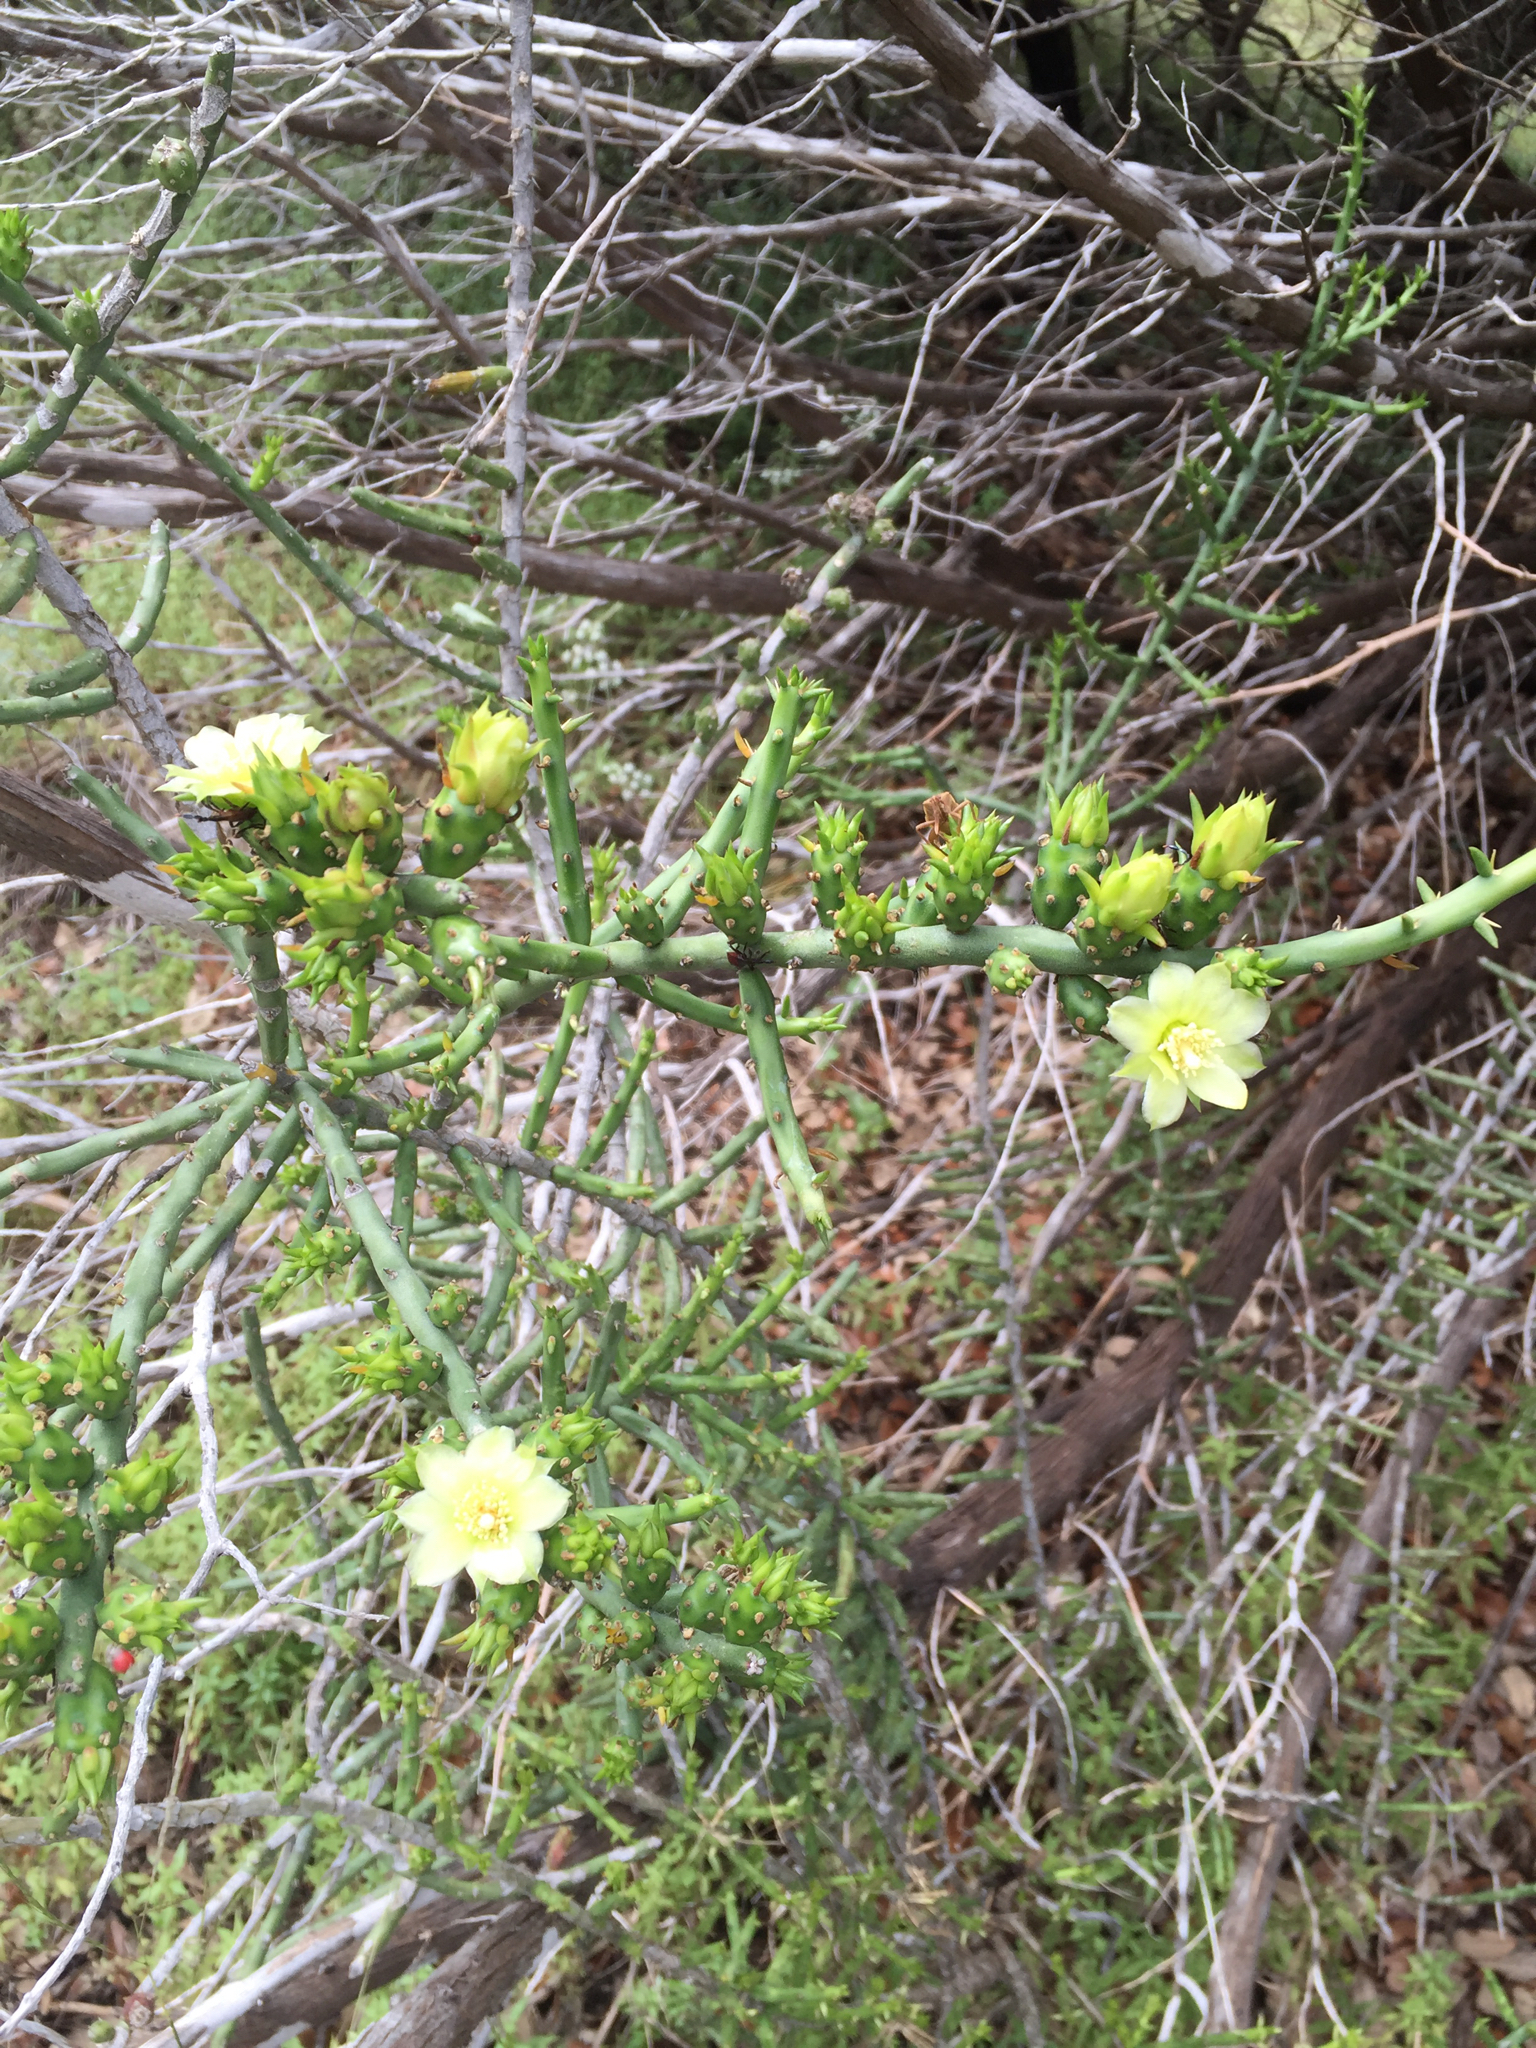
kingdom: Plantae
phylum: Tracheophyta
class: Magnoliopsida
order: Caryophyllales
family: Cactaceae
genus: Cylindropuntia
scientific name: Cylindropuntia leptocaulis
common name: Christmas cactus
